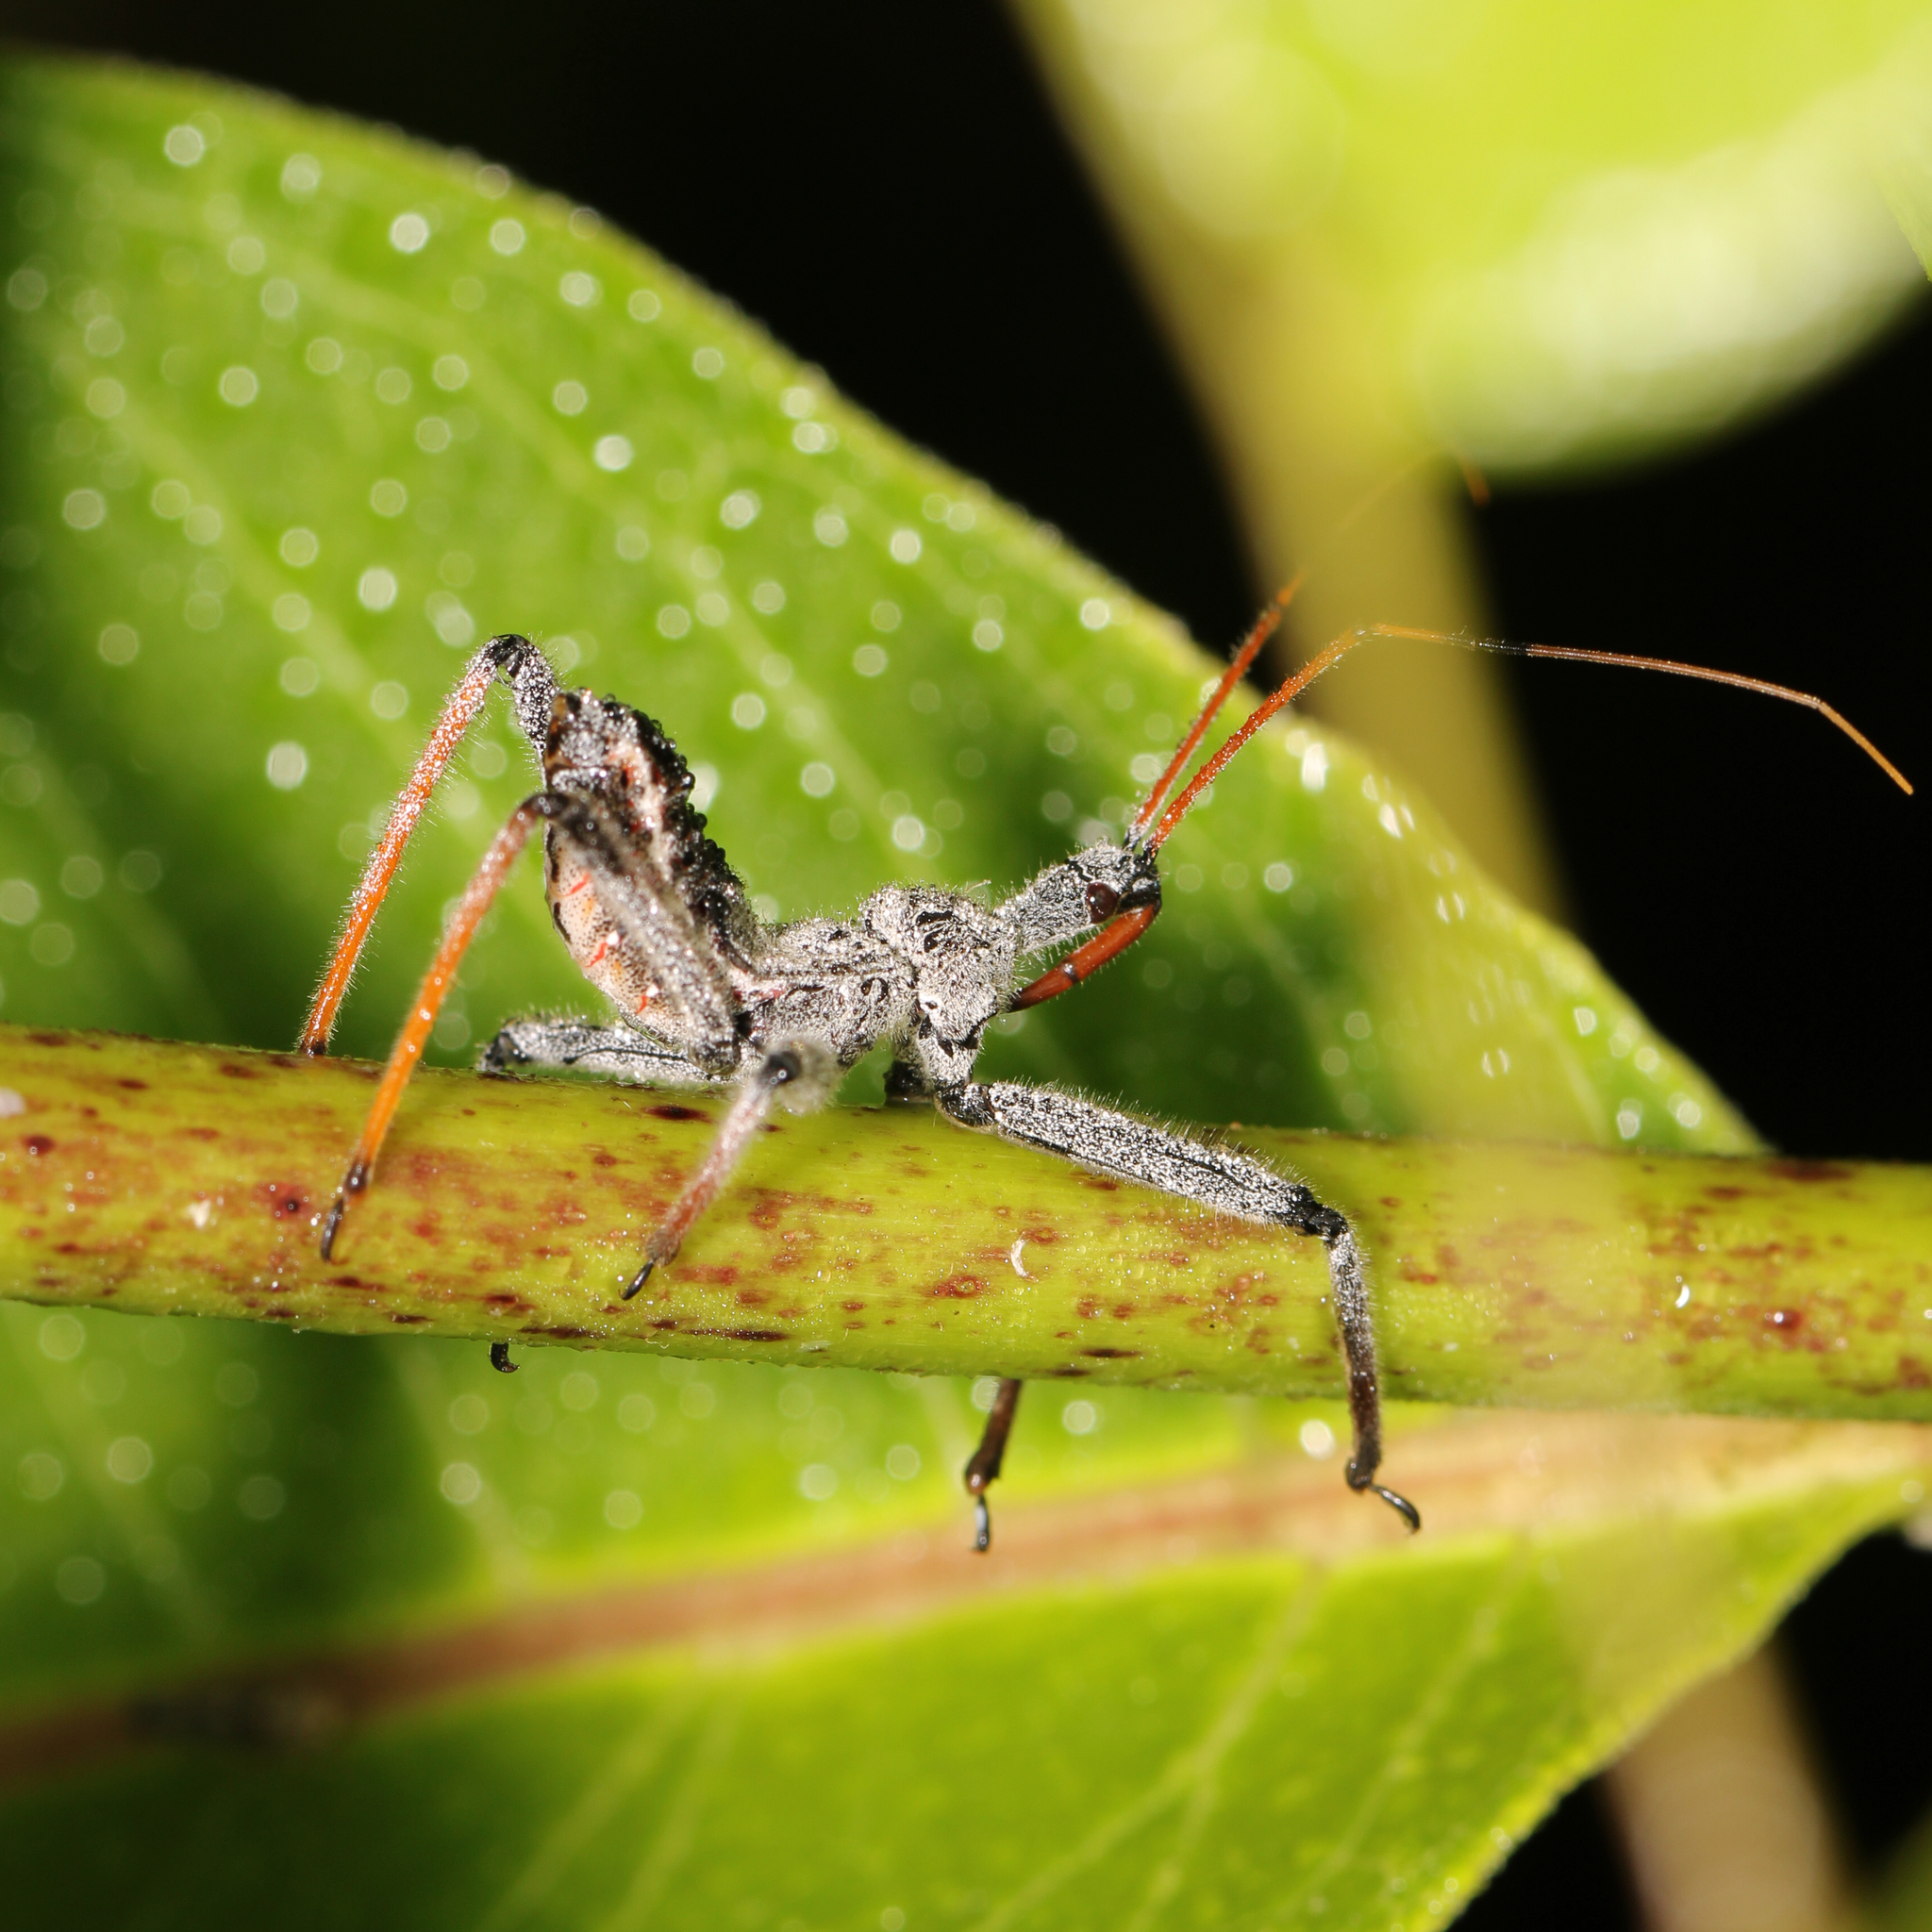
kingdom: Animalia
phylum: Arthropoda
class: Insecta
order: Hemiptera
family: Reduviidae
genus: Arilus
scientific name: Arilus cristatus
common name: North american wheel bug
